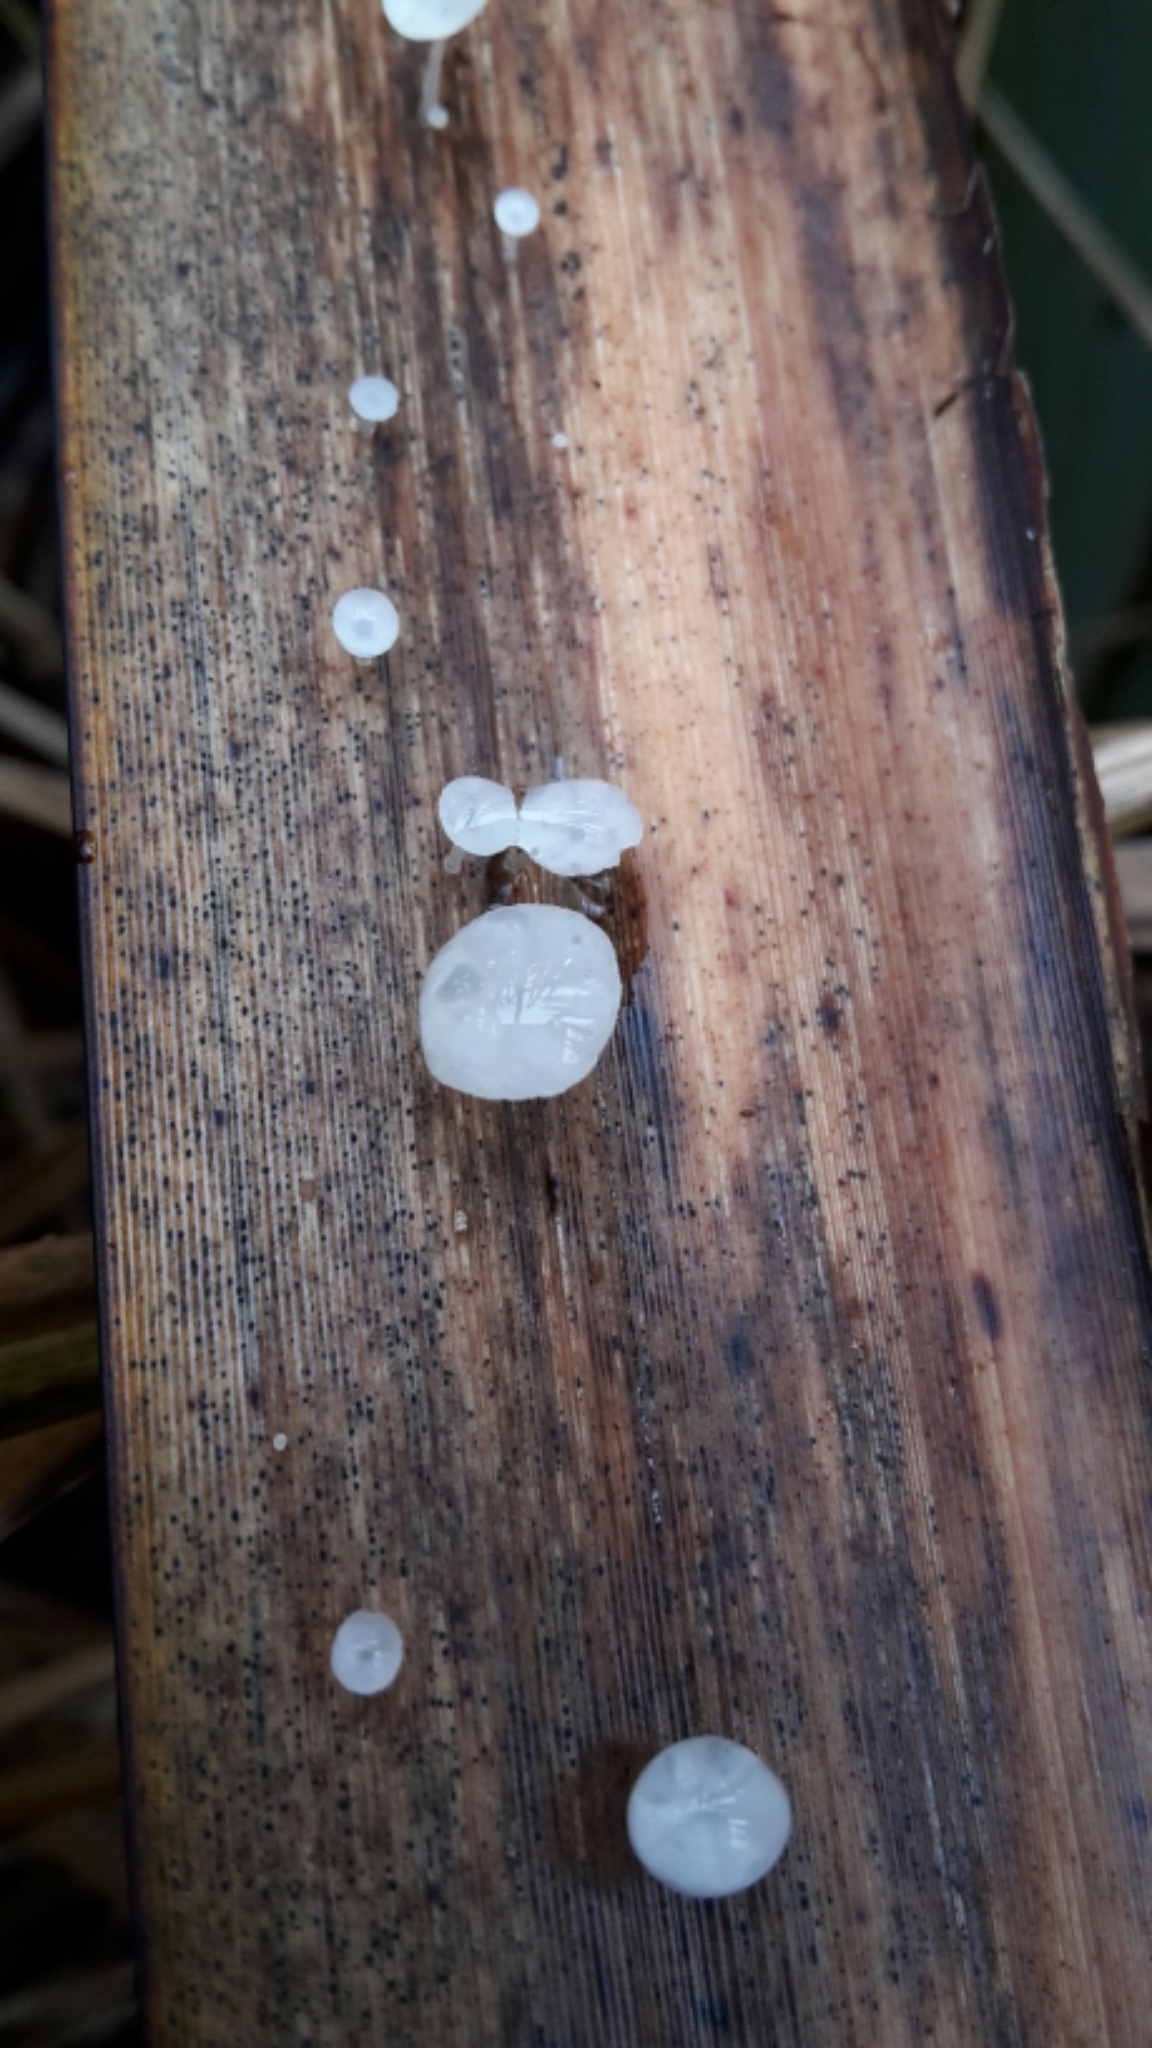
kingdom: Fungi
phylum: Basidiomycota
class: Agaricomycetes
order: Agaricales
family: Physalacriaceae
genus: Gloiocephala
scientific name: Gloiocephala phormiorum
